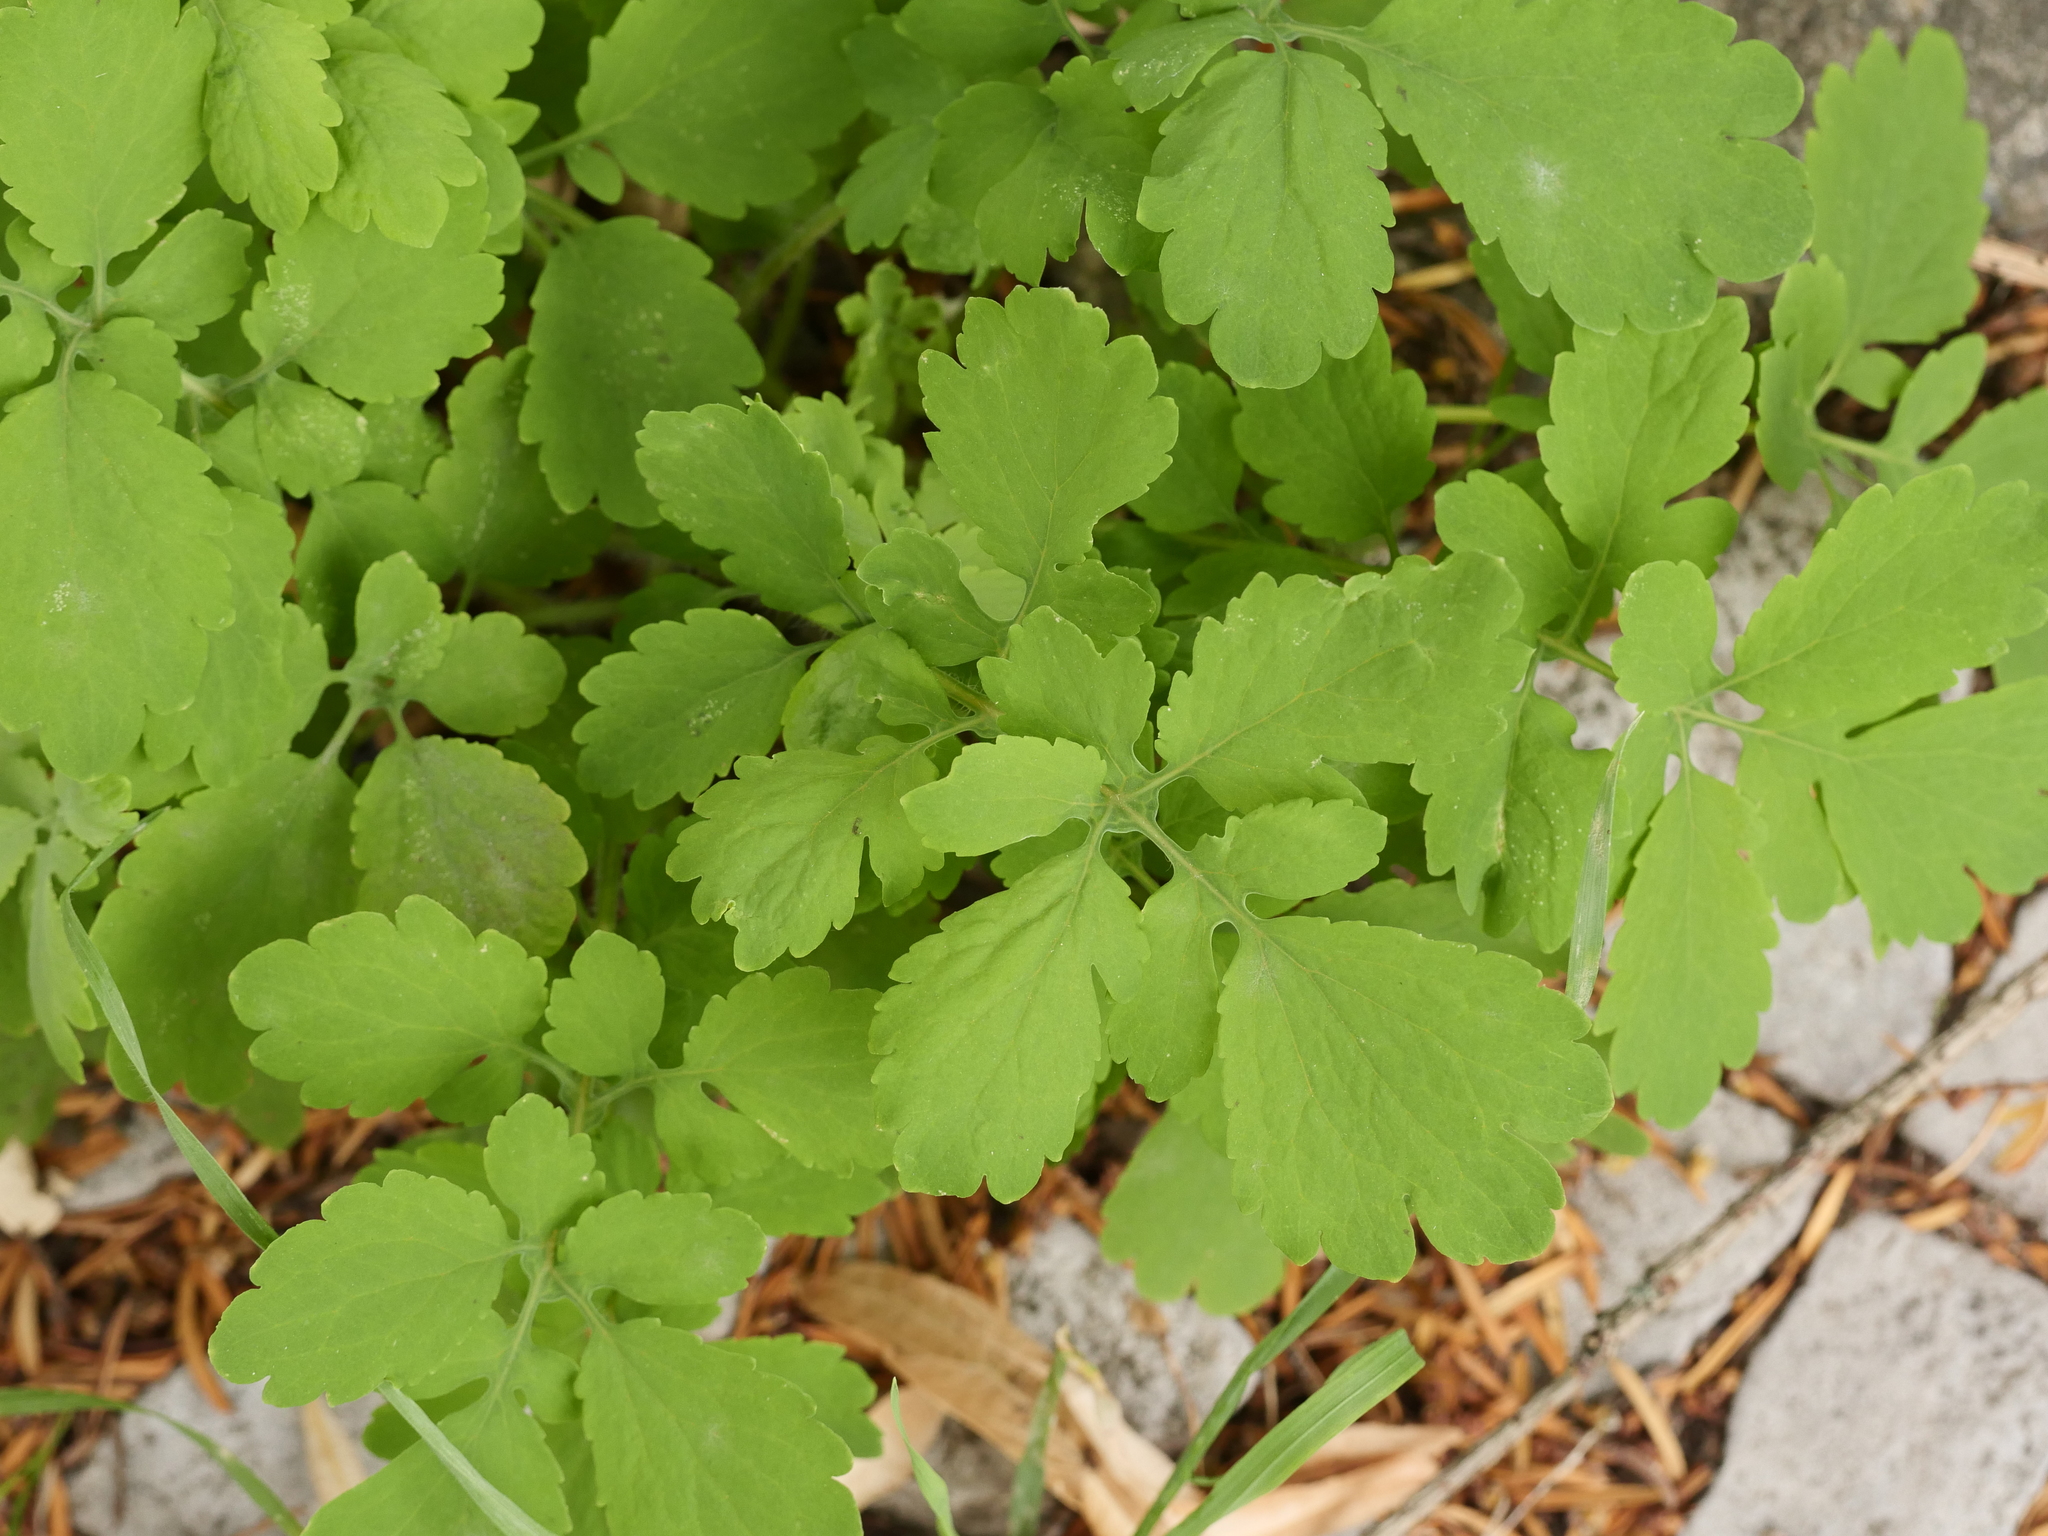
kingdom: Plantae
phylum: Tracheophyta
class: Magnoliopsida
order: Ranunculales
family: Papaveraceae
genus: Chelidonium
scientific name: Chelidonium majus
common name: Greater celandine
